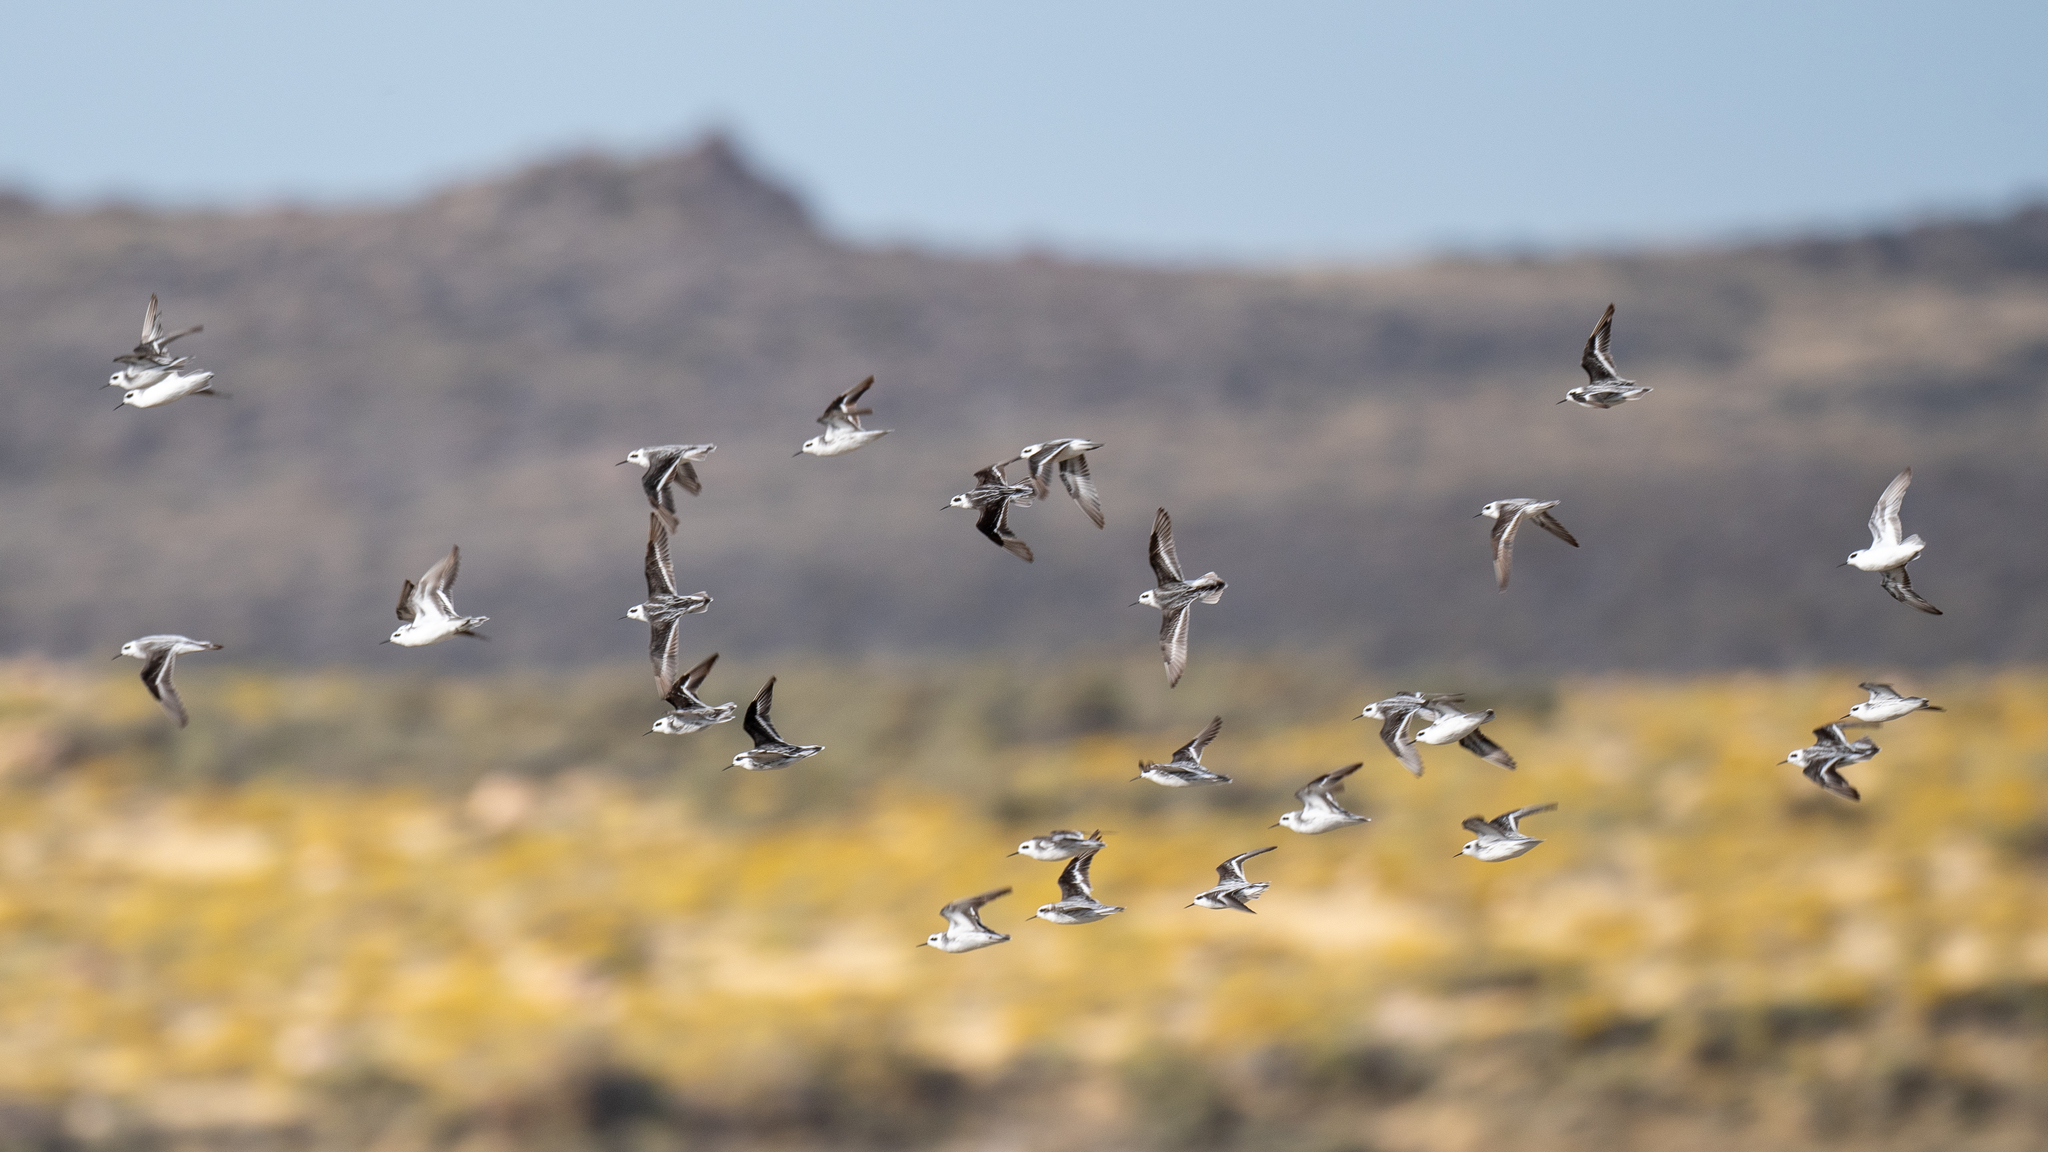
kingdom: Animalia
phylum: Chordata
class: Aves
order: Charadriiformes
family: Scolopacidae
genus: Phalaropus
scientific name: Phalaropus lobatus
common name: Red-necked phalarope
